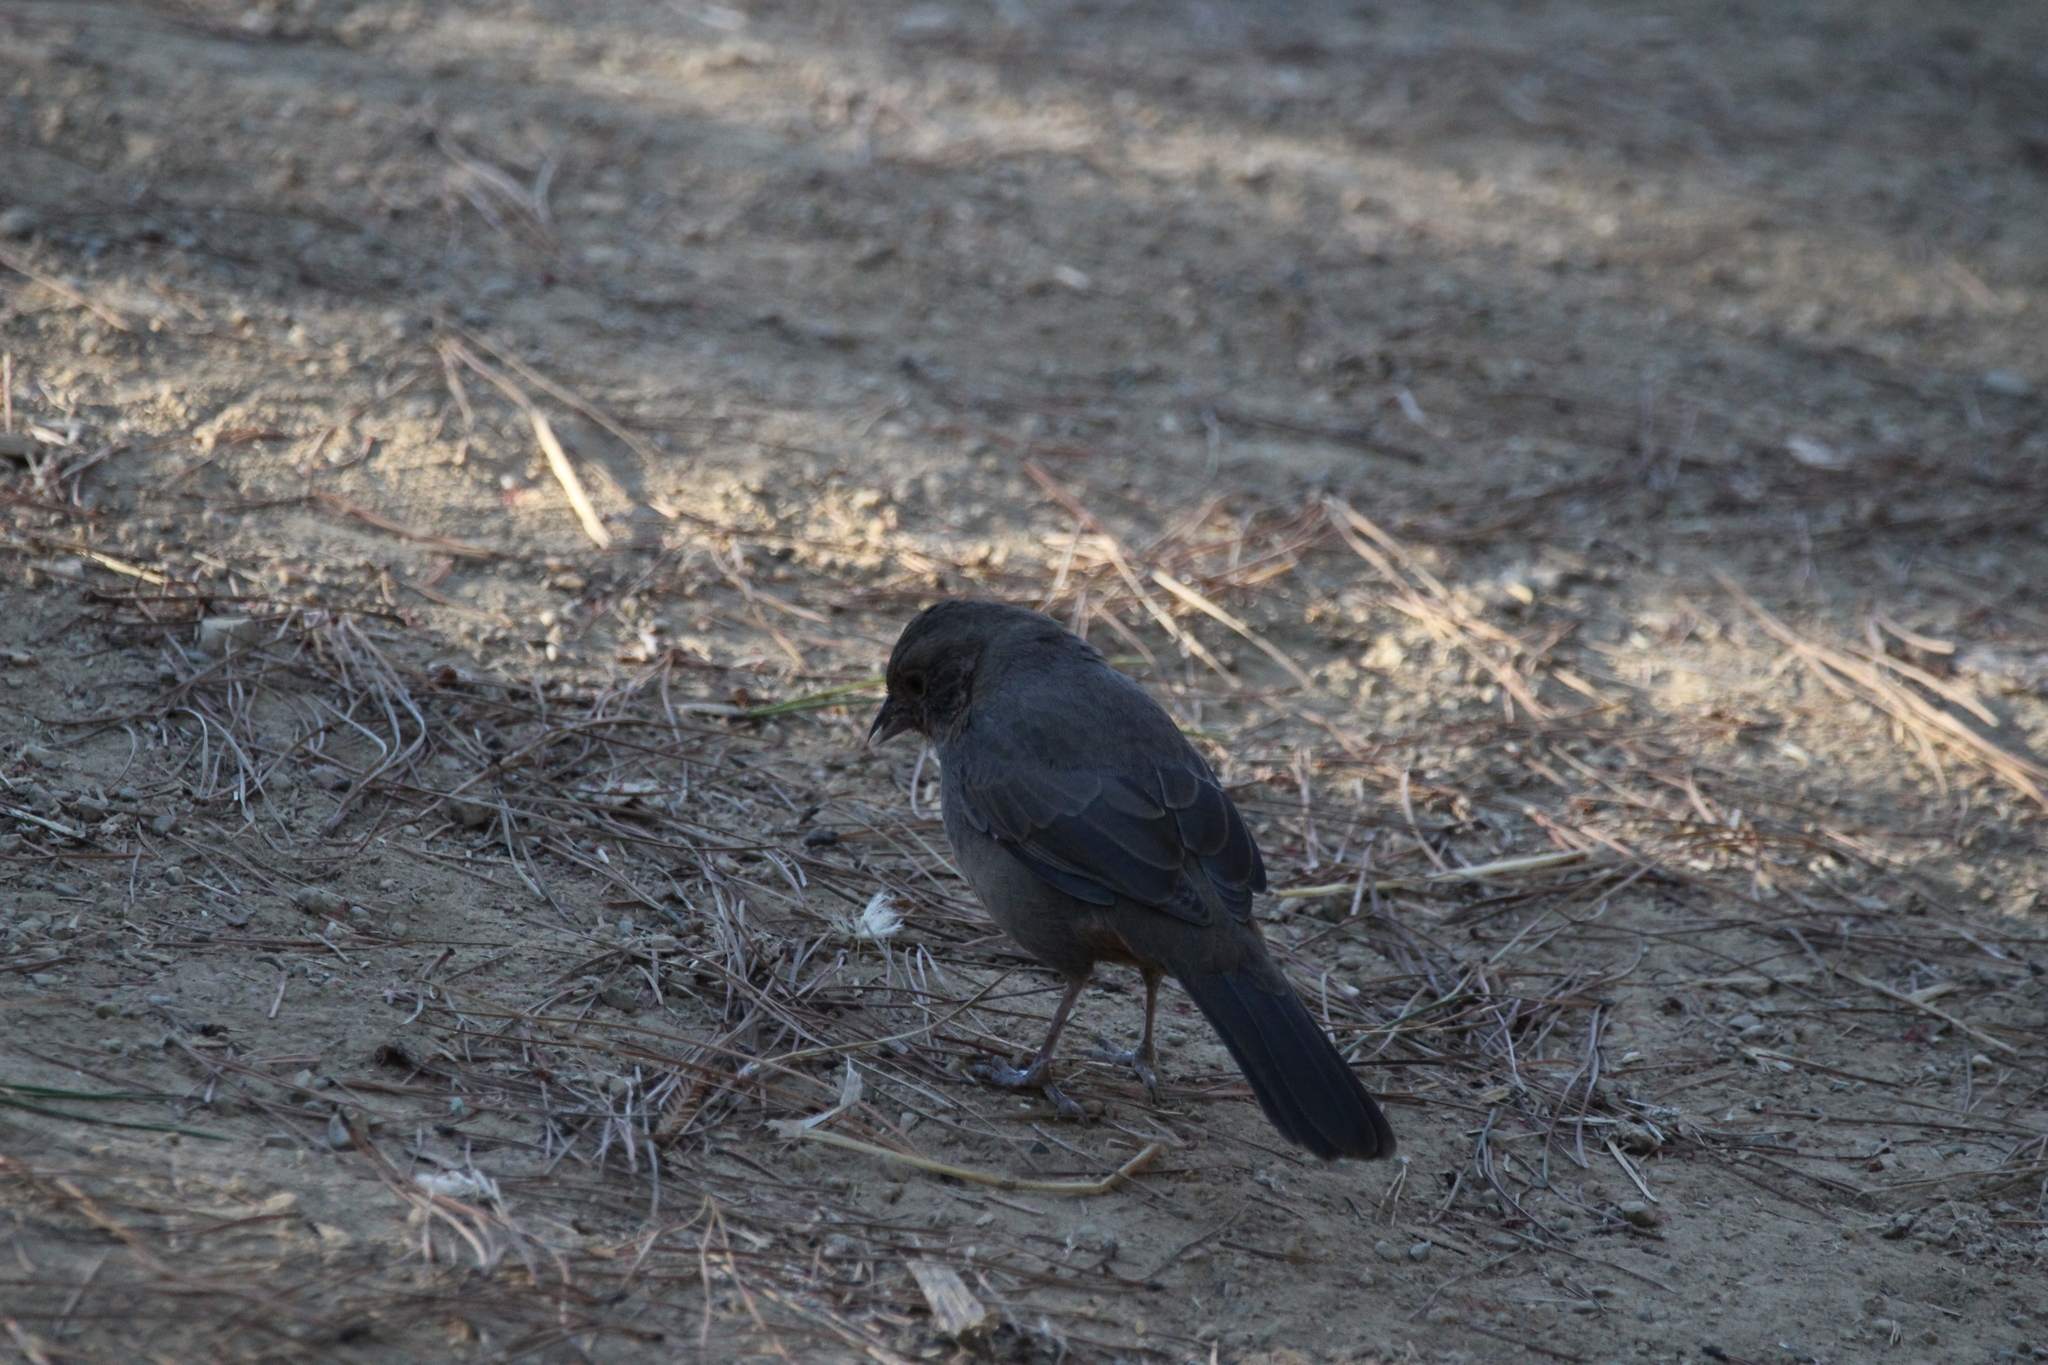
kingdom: Animalia
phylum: Chordata
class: Aves
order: Passeriformes
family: Passerellidae
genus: Melozone
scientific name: Melozone crissalis
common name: California towhee
